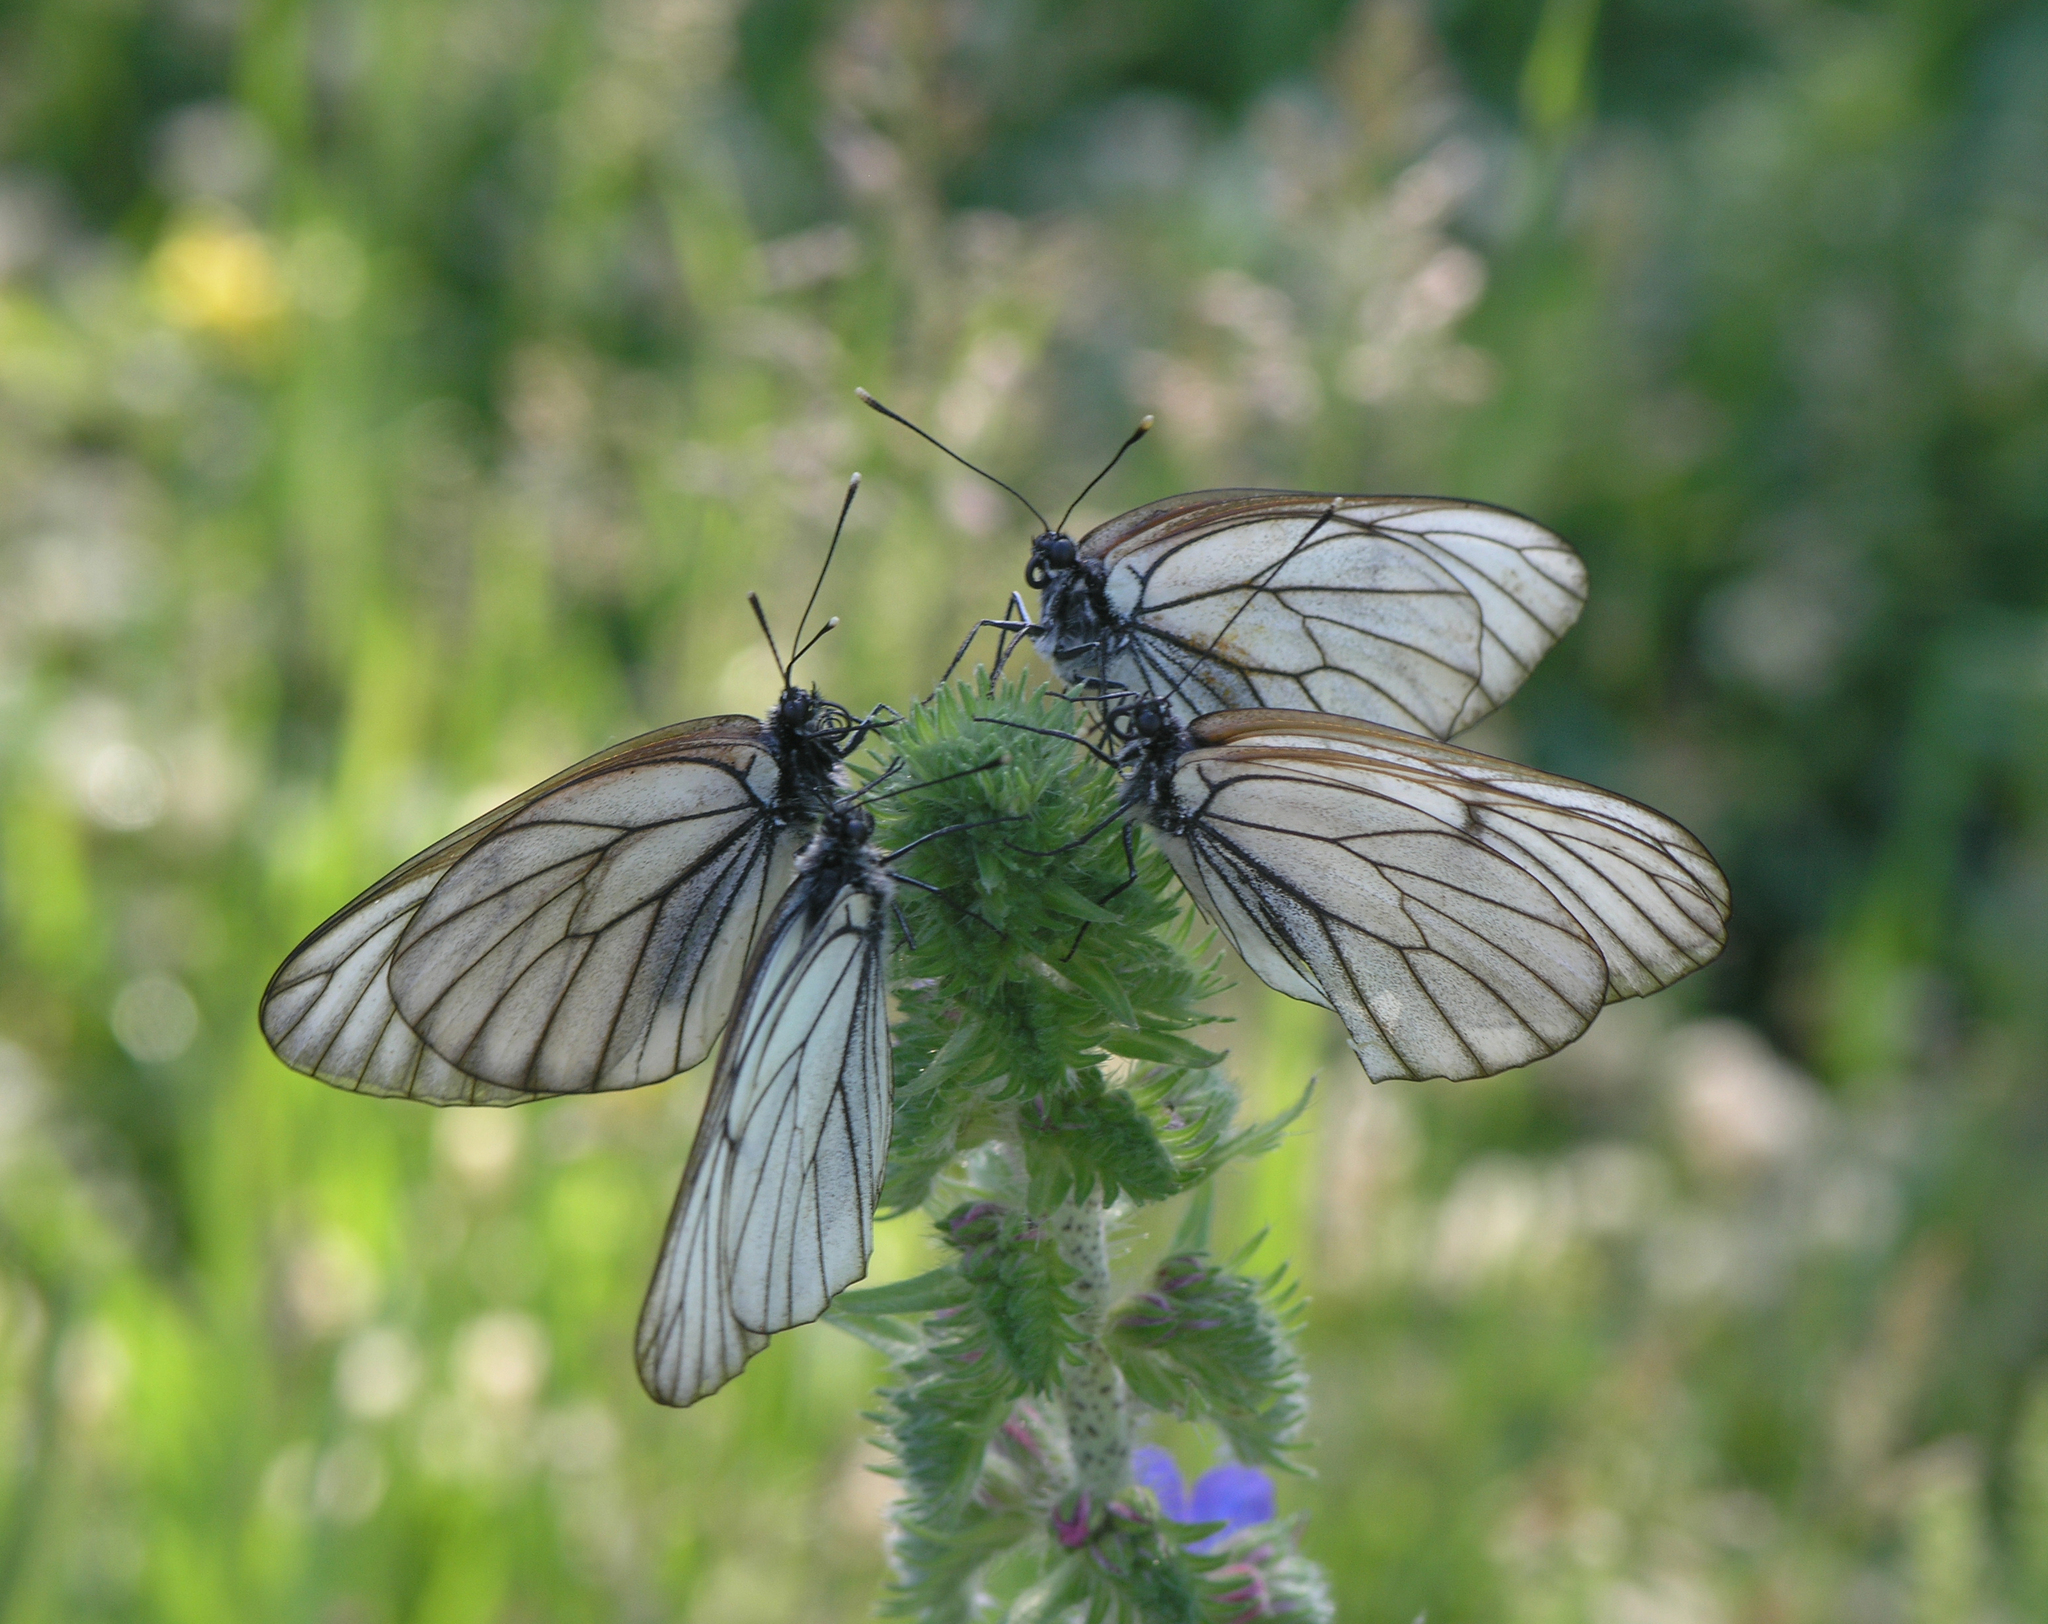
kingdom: Plantae
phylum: Tracheophyta
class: Magnoliopsida
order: Boraginales
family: Boraginaceae
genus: Echium
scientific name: Echium vulgare
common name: Common viper's bugloss
